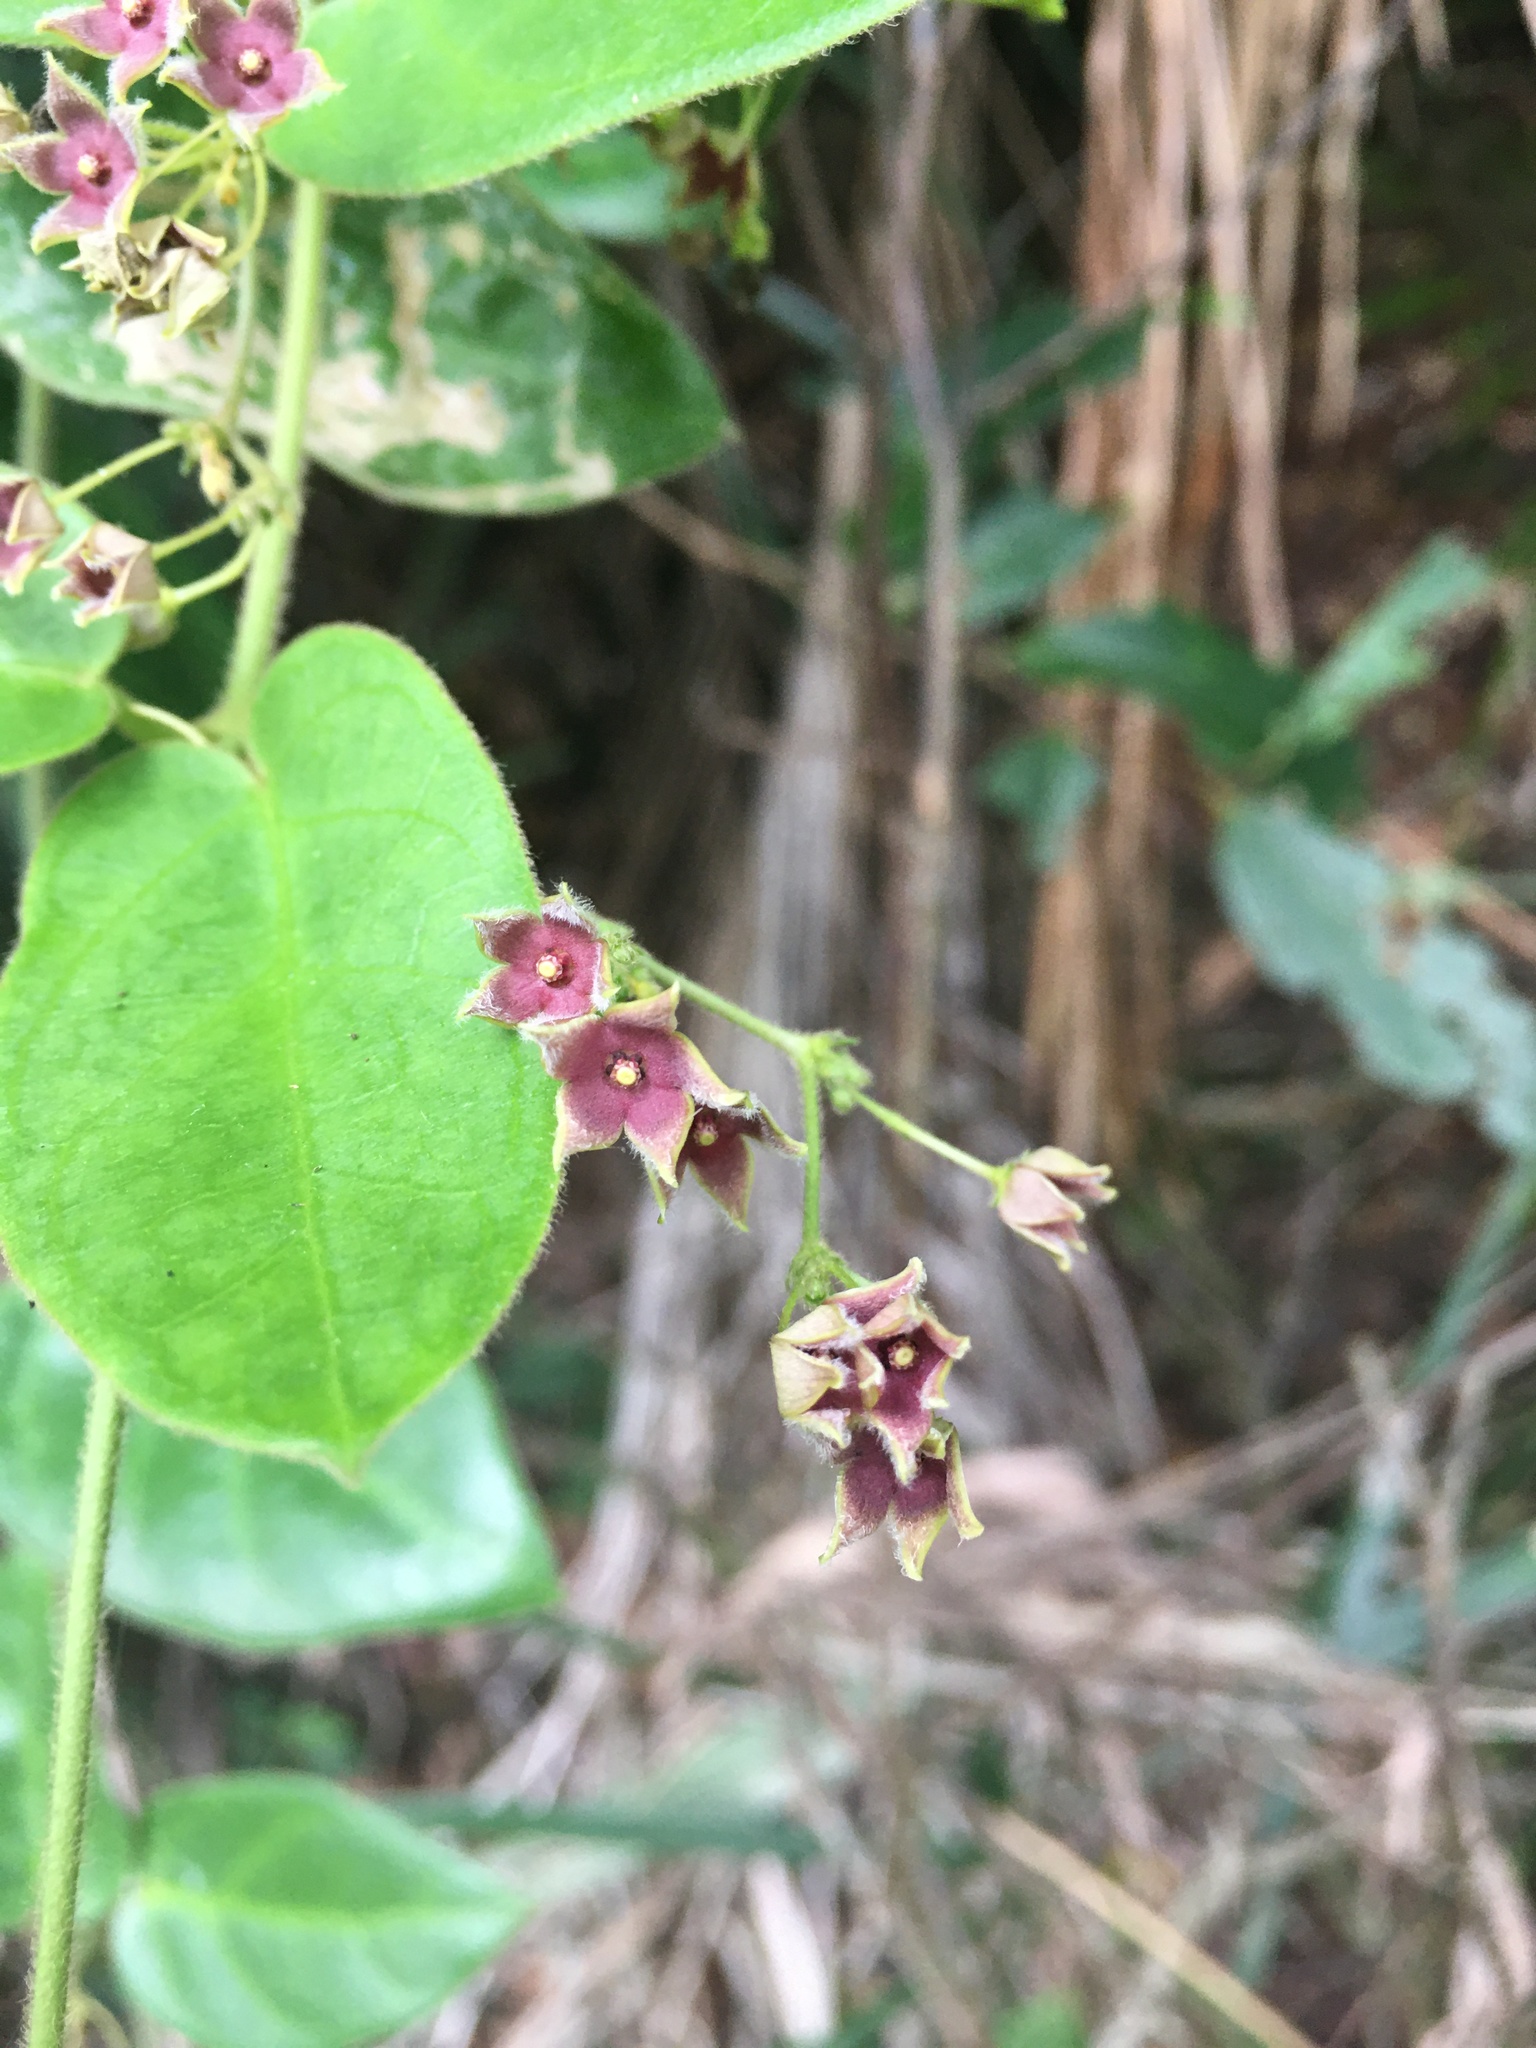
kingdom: Plantae
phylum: Tracheophyta
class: Magnoliopsida
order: Gentianales
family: Apocynaceae
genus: Vincetoxicum
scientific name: Vincetoxicum hirsutum
